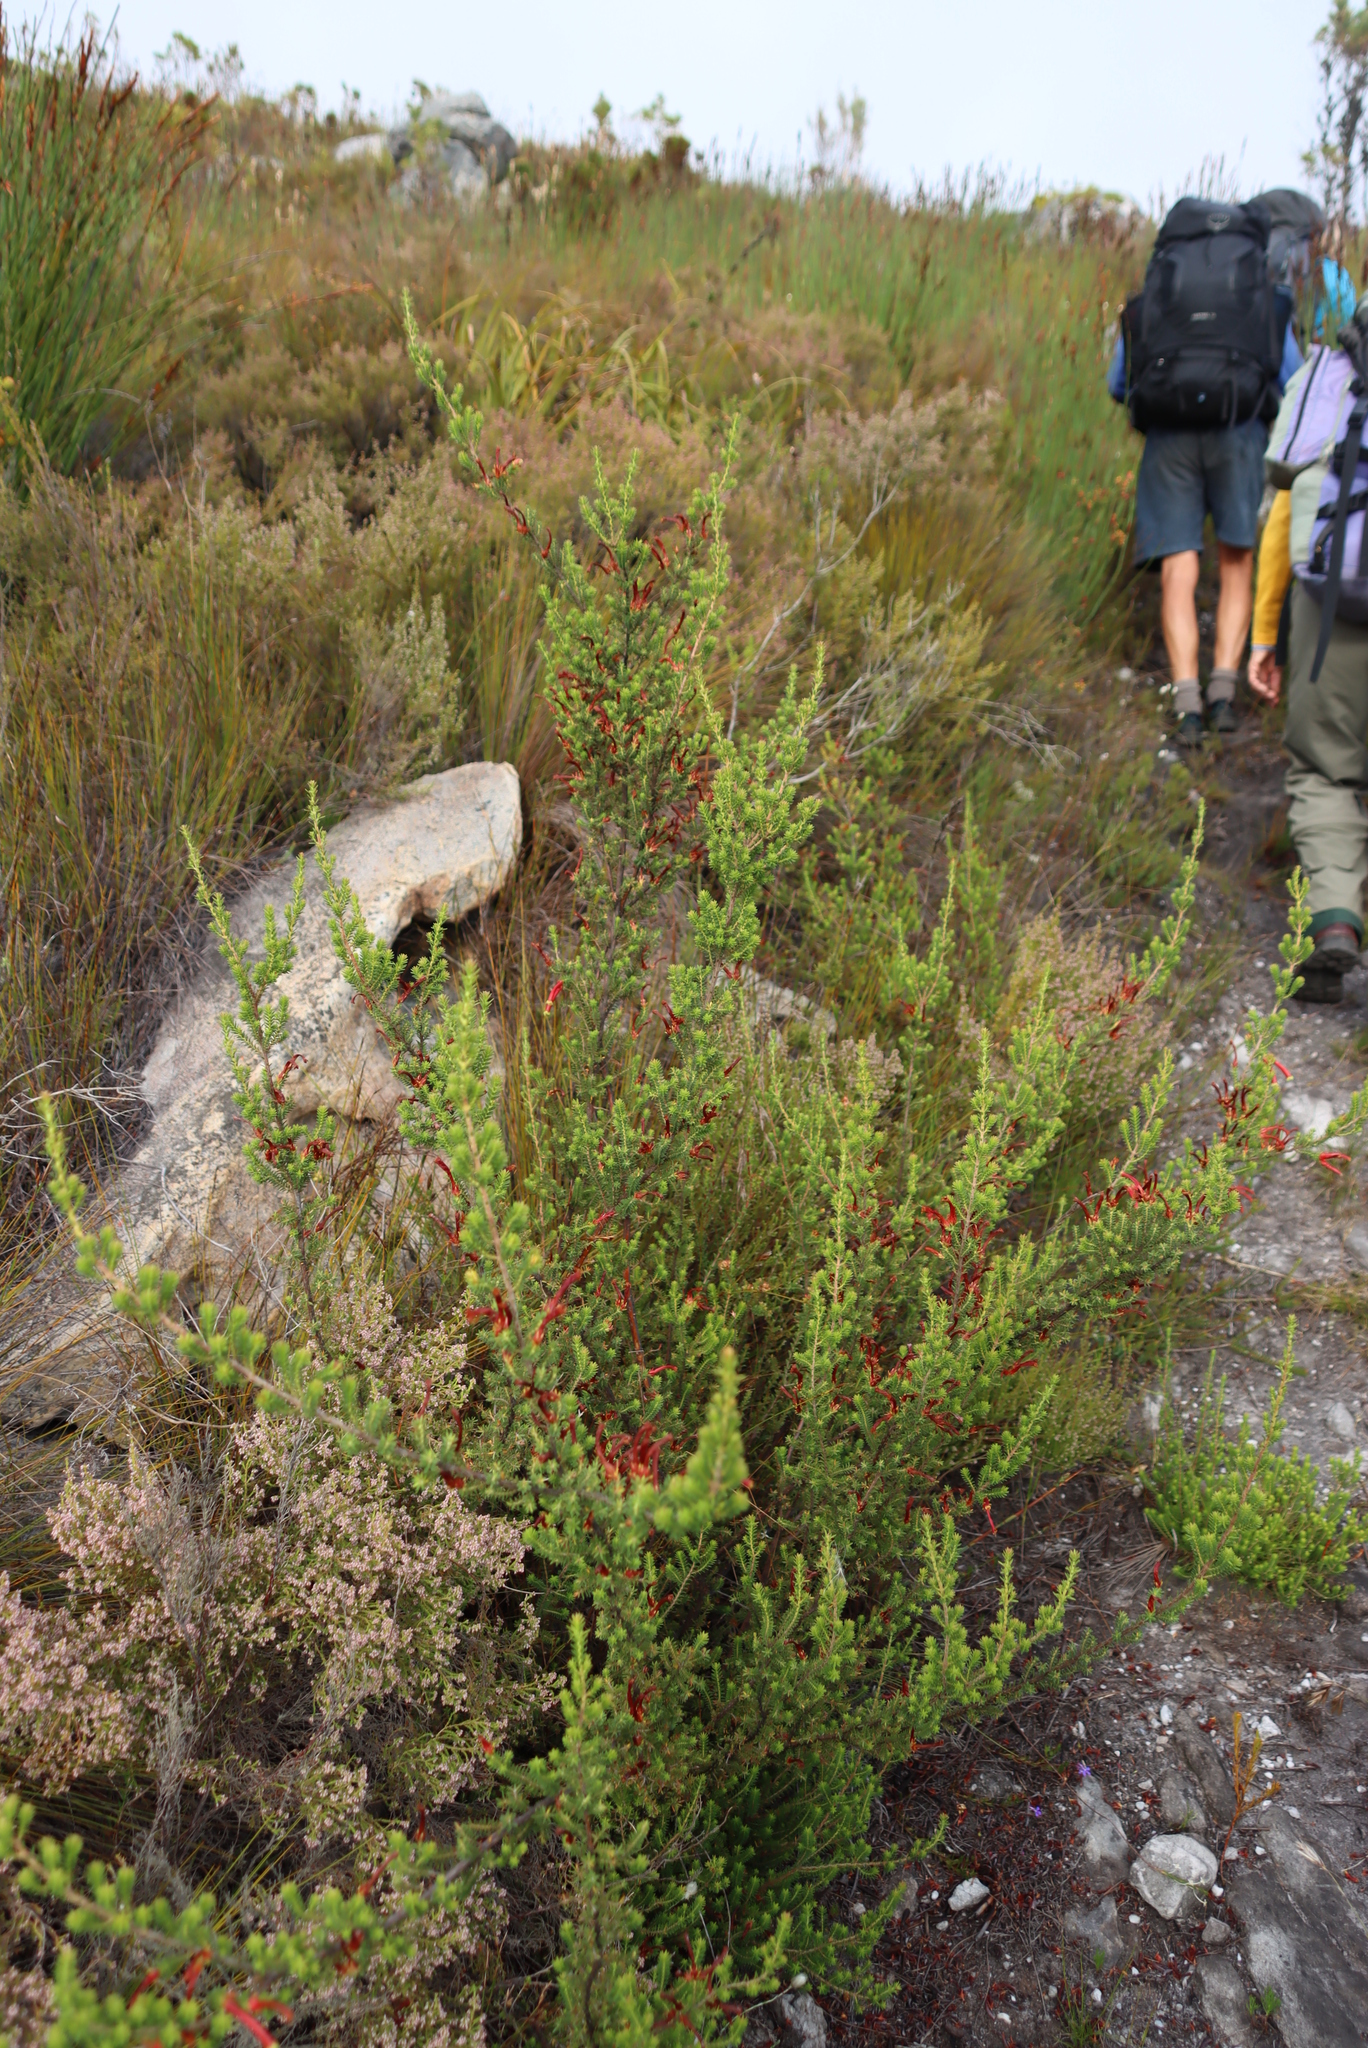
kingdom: Plantae
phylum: Tracheophyta
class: Magnoliopsida
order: Ericales
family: Ericaceae
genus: Erica
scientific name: Erica versicolor
